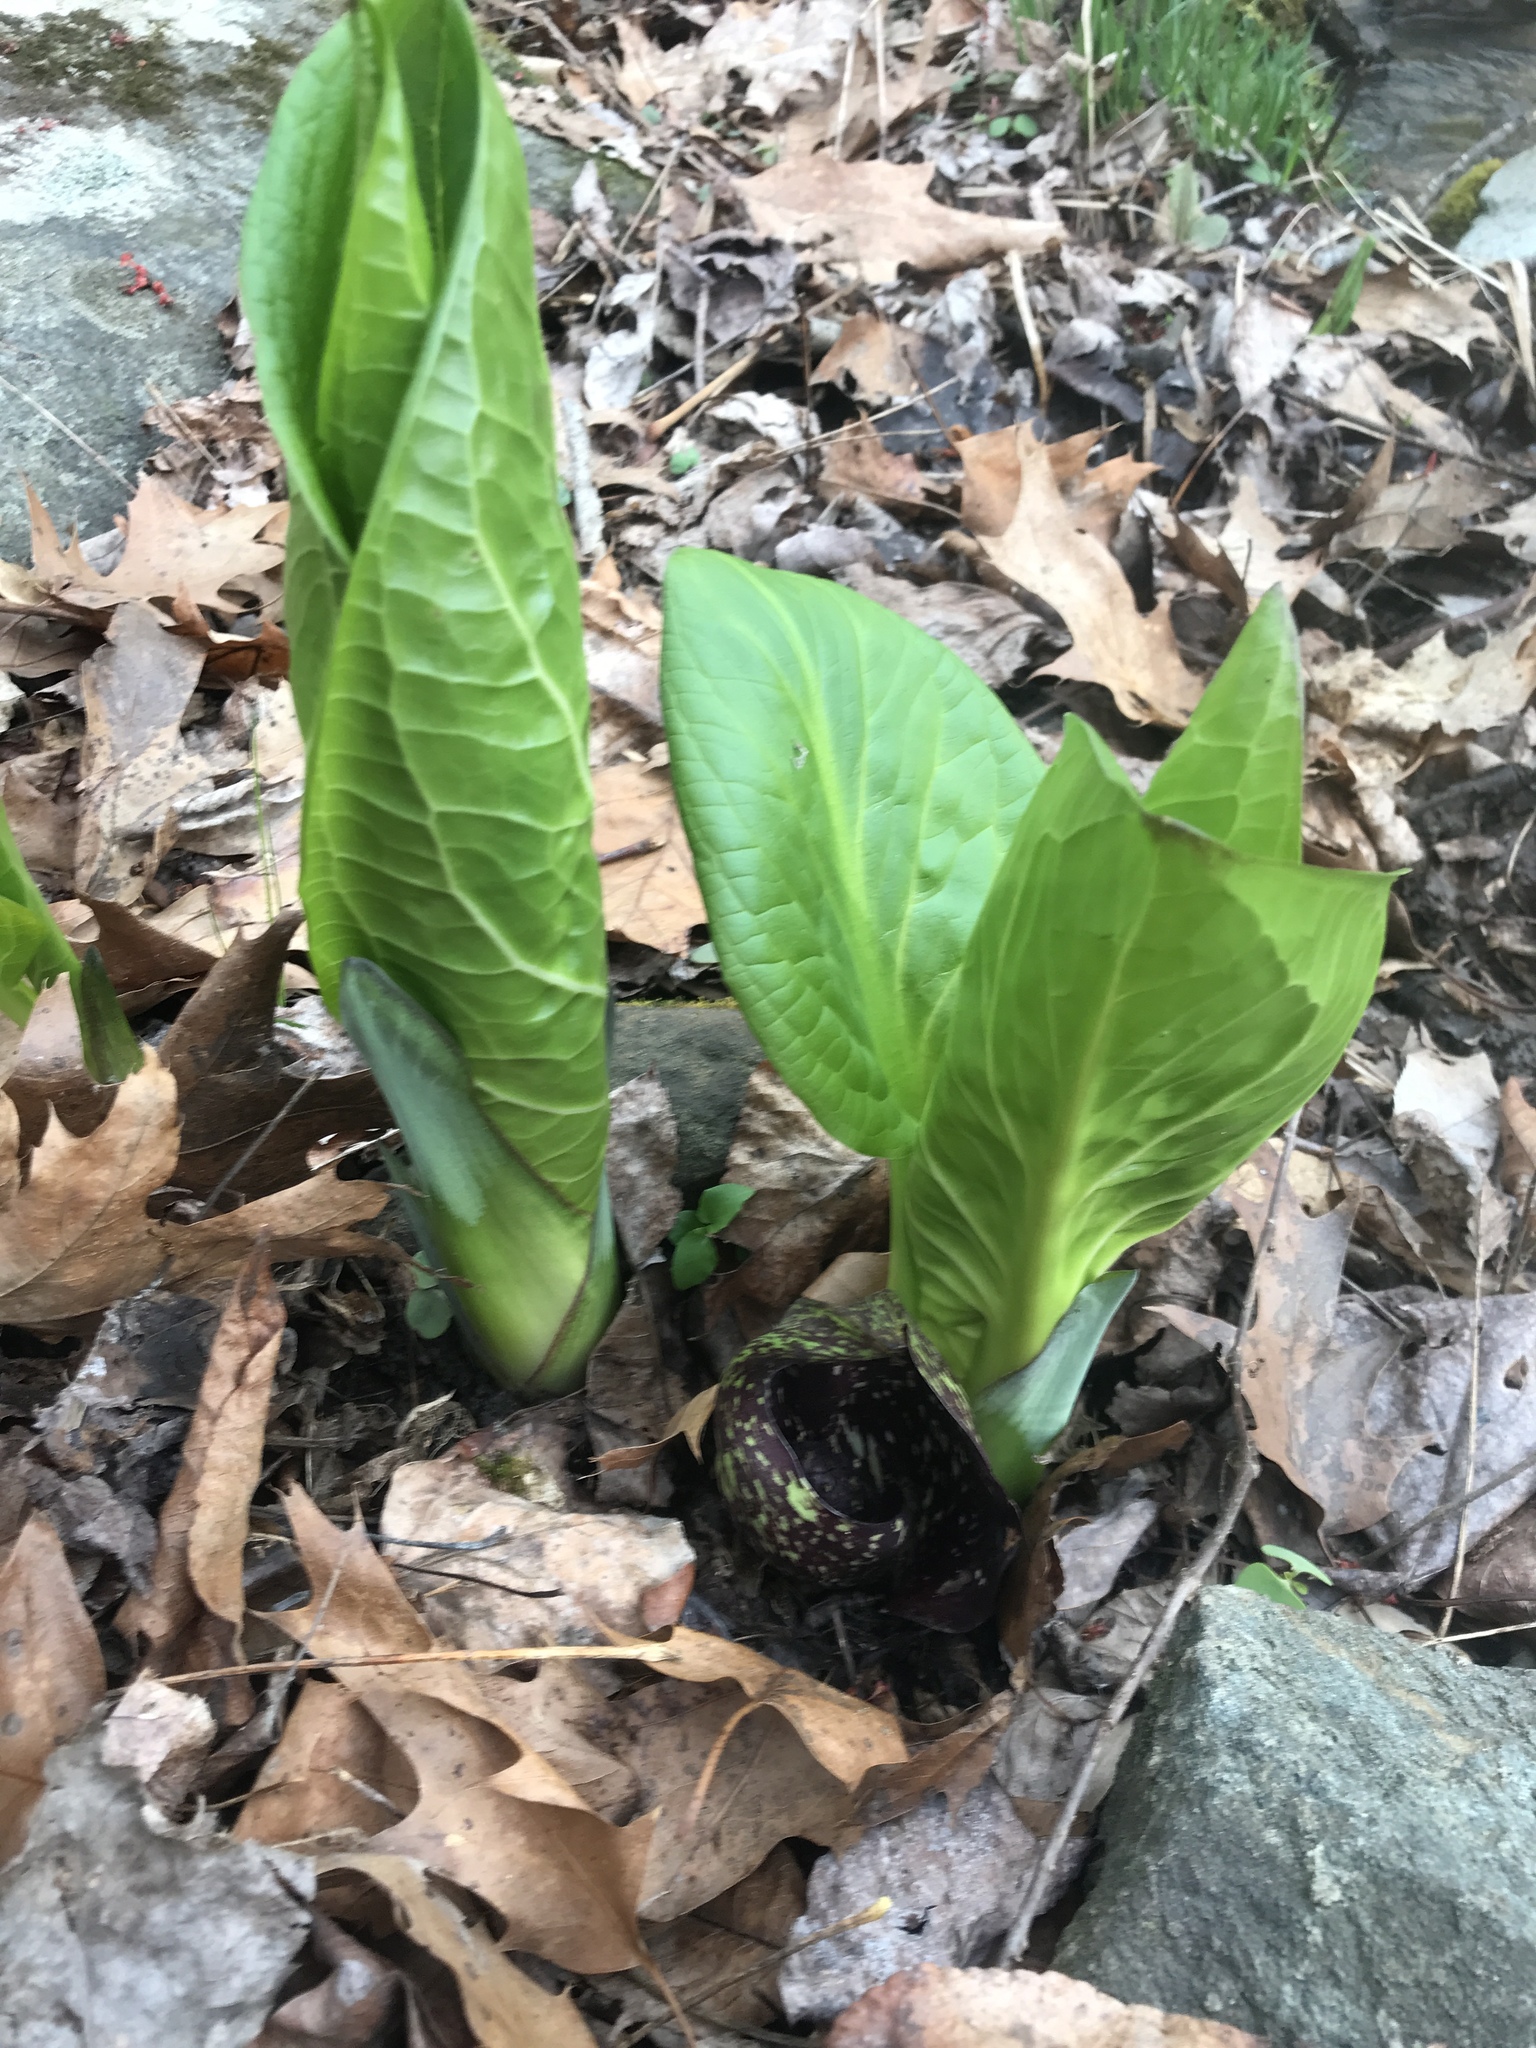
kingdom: Plantae
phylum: Tracheophyta
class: Liliopsida
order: Alismatales
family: Araceae
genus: Symplocarpus
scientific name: Symplocarpus foetidus
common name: Eastern skunk cabbage
